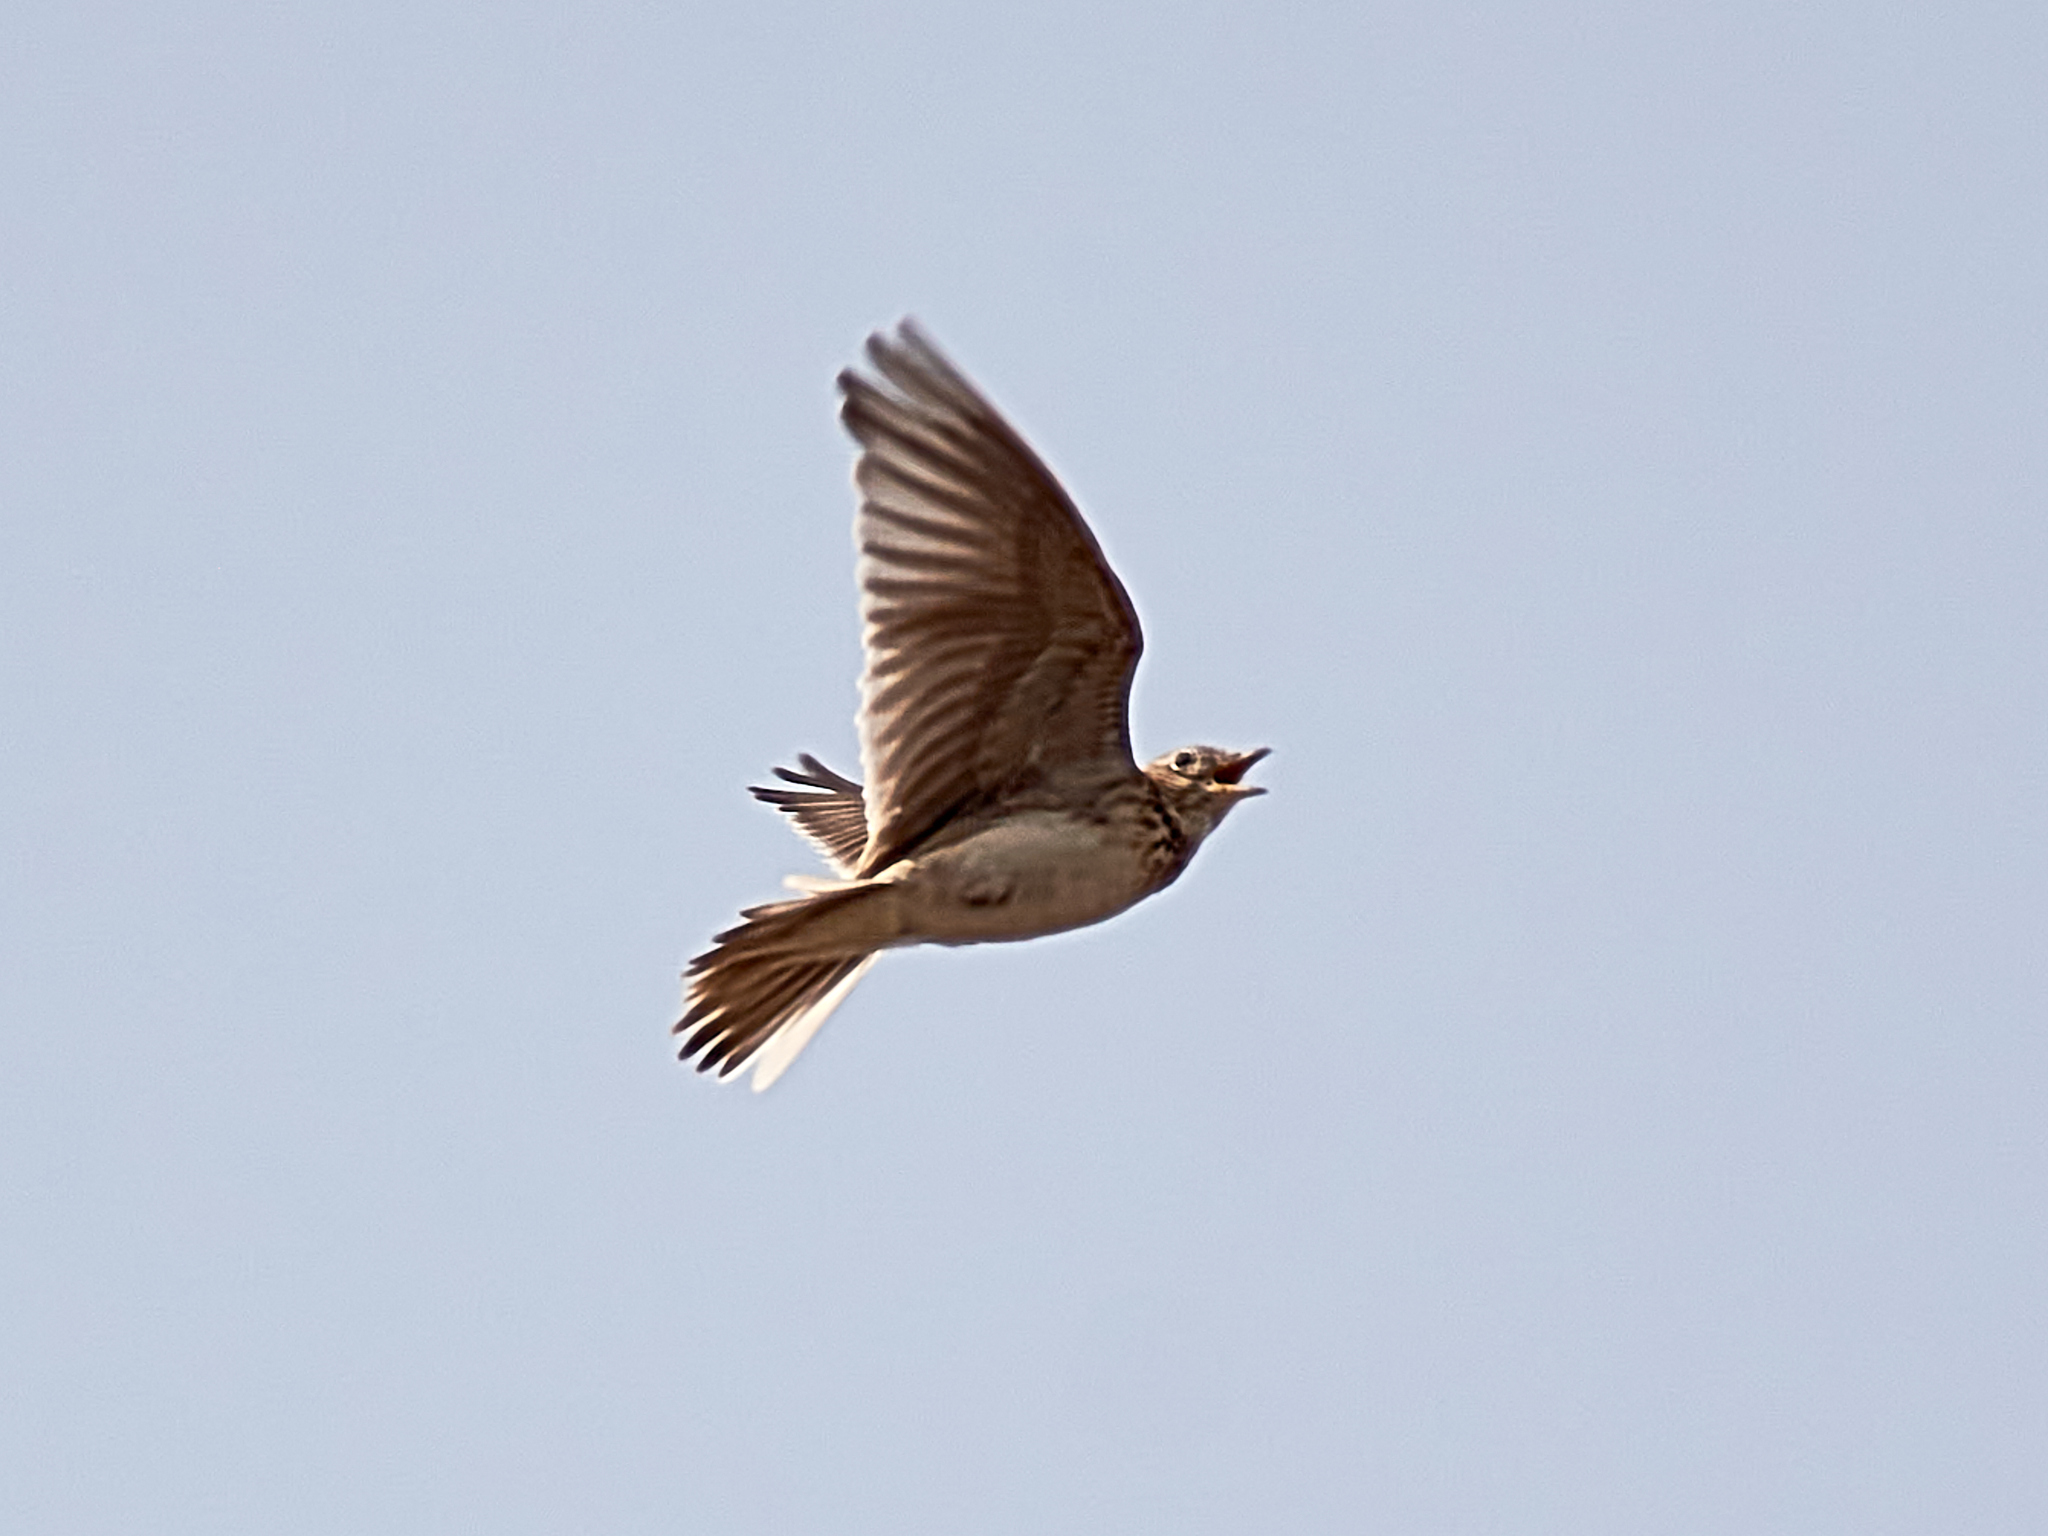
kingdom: Animalia
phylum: Chordata
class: Aves
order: Passeriformes
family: Alaudidae
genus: Alauda
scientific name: Alauda arvensis
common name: Eurasian skylark
